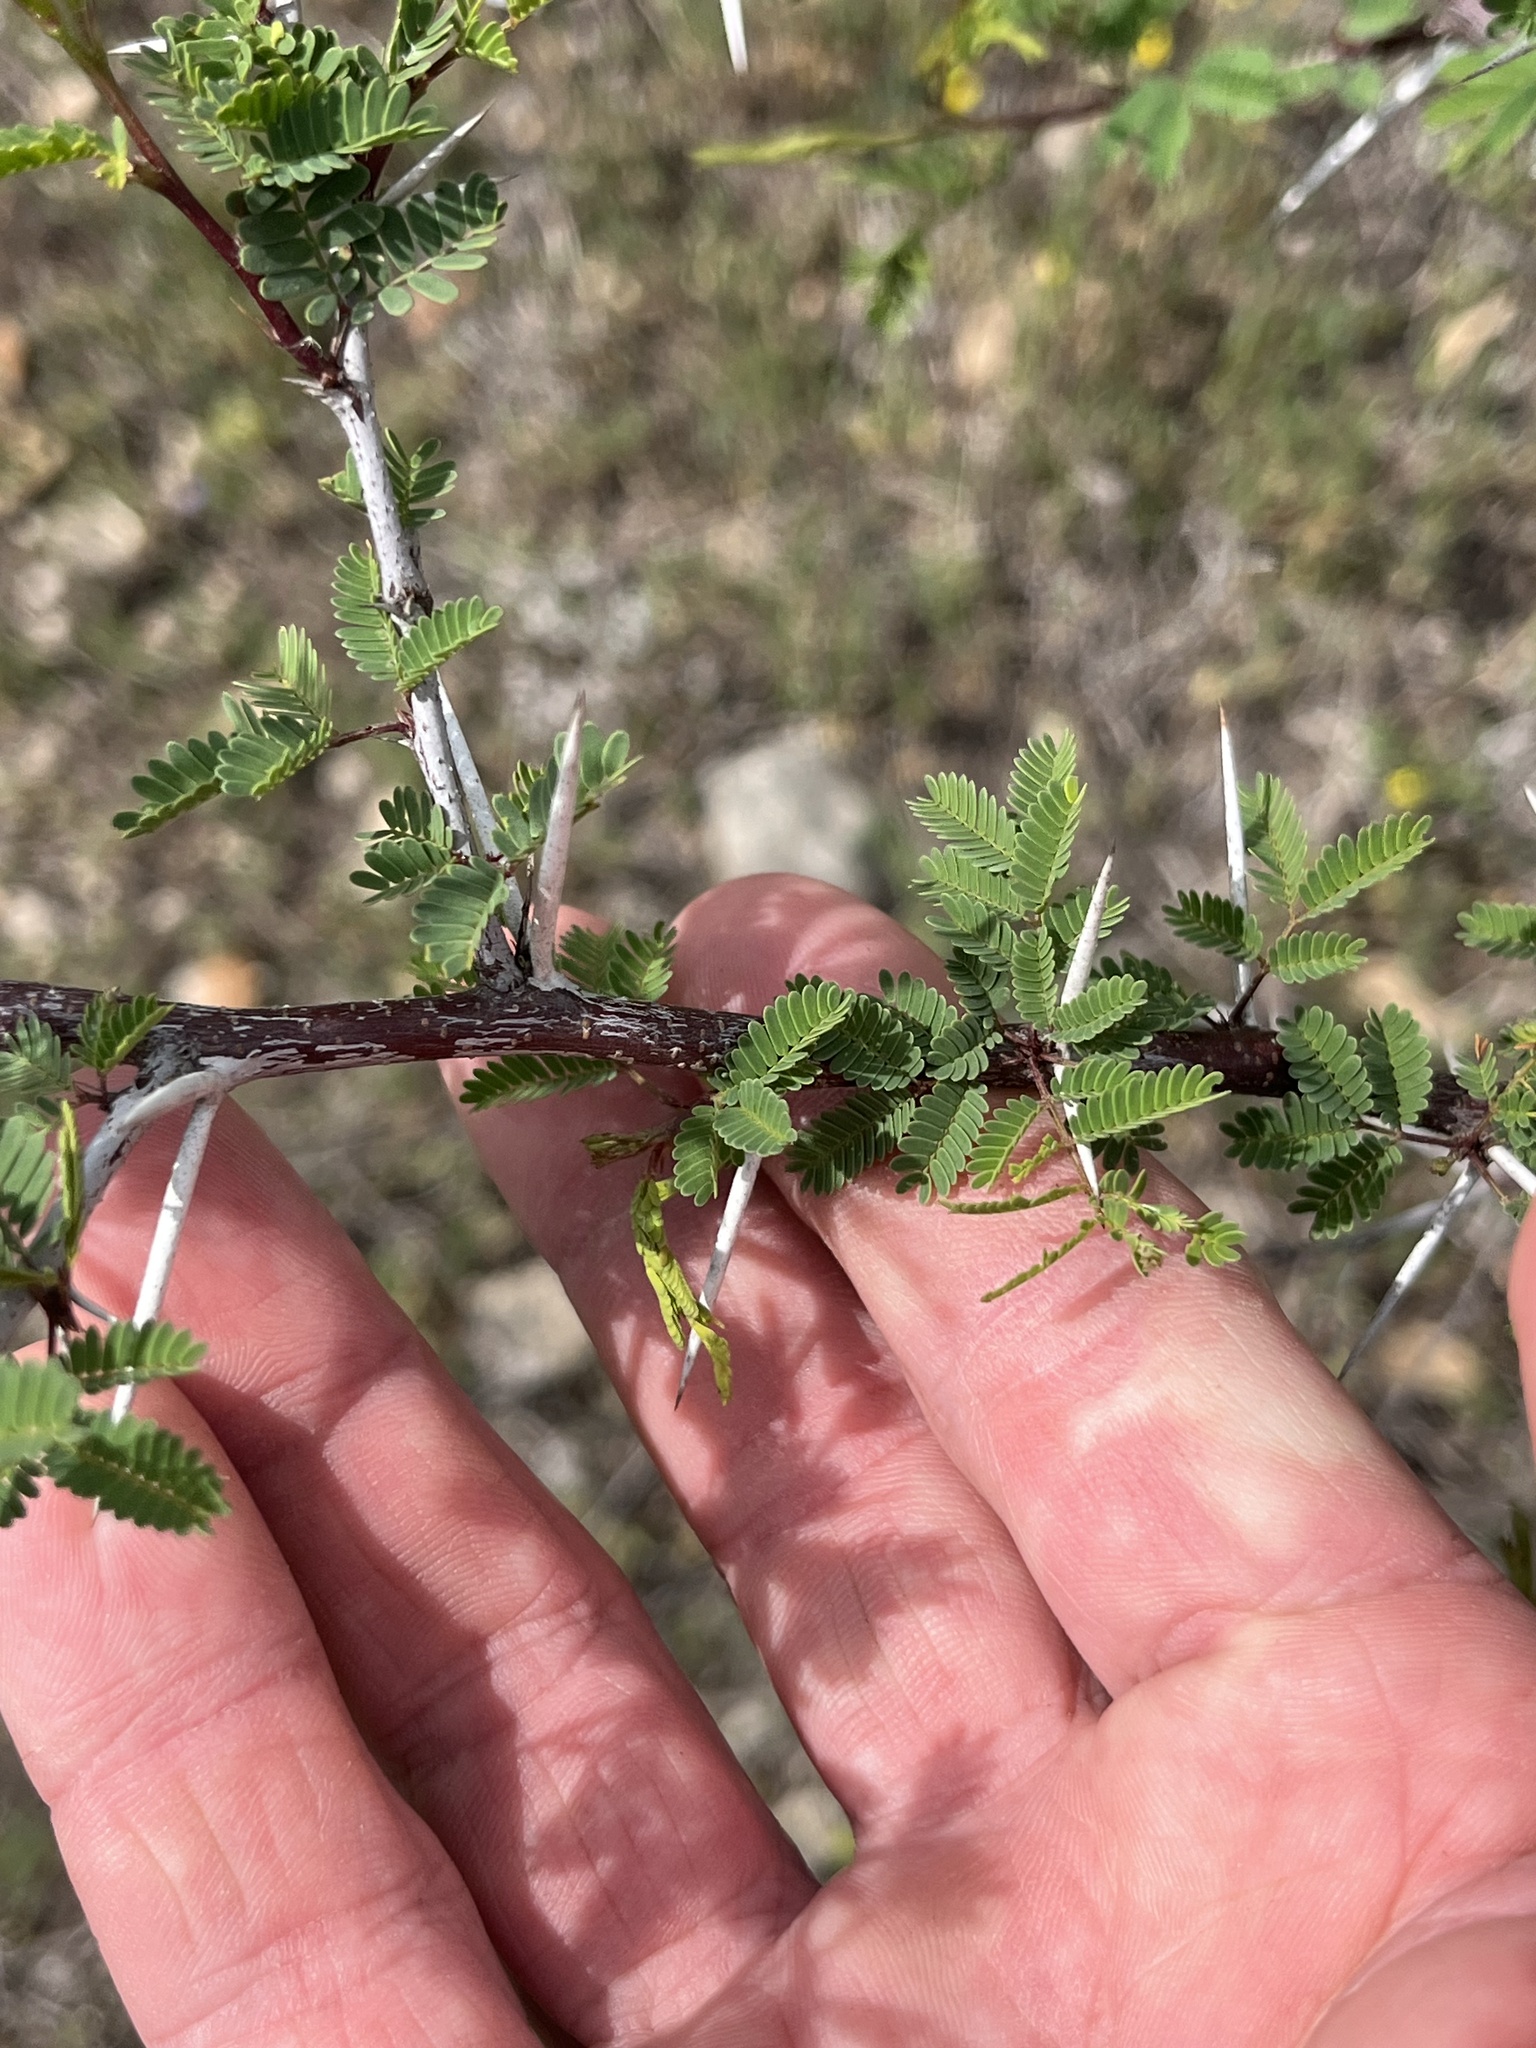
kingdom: Plantae
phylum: Tracheophyta
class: Magnoliopsida
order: Fabales
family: Fabaceae
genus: Vachellia
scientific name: Vachellia farnesiana
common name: Sweet acacia
